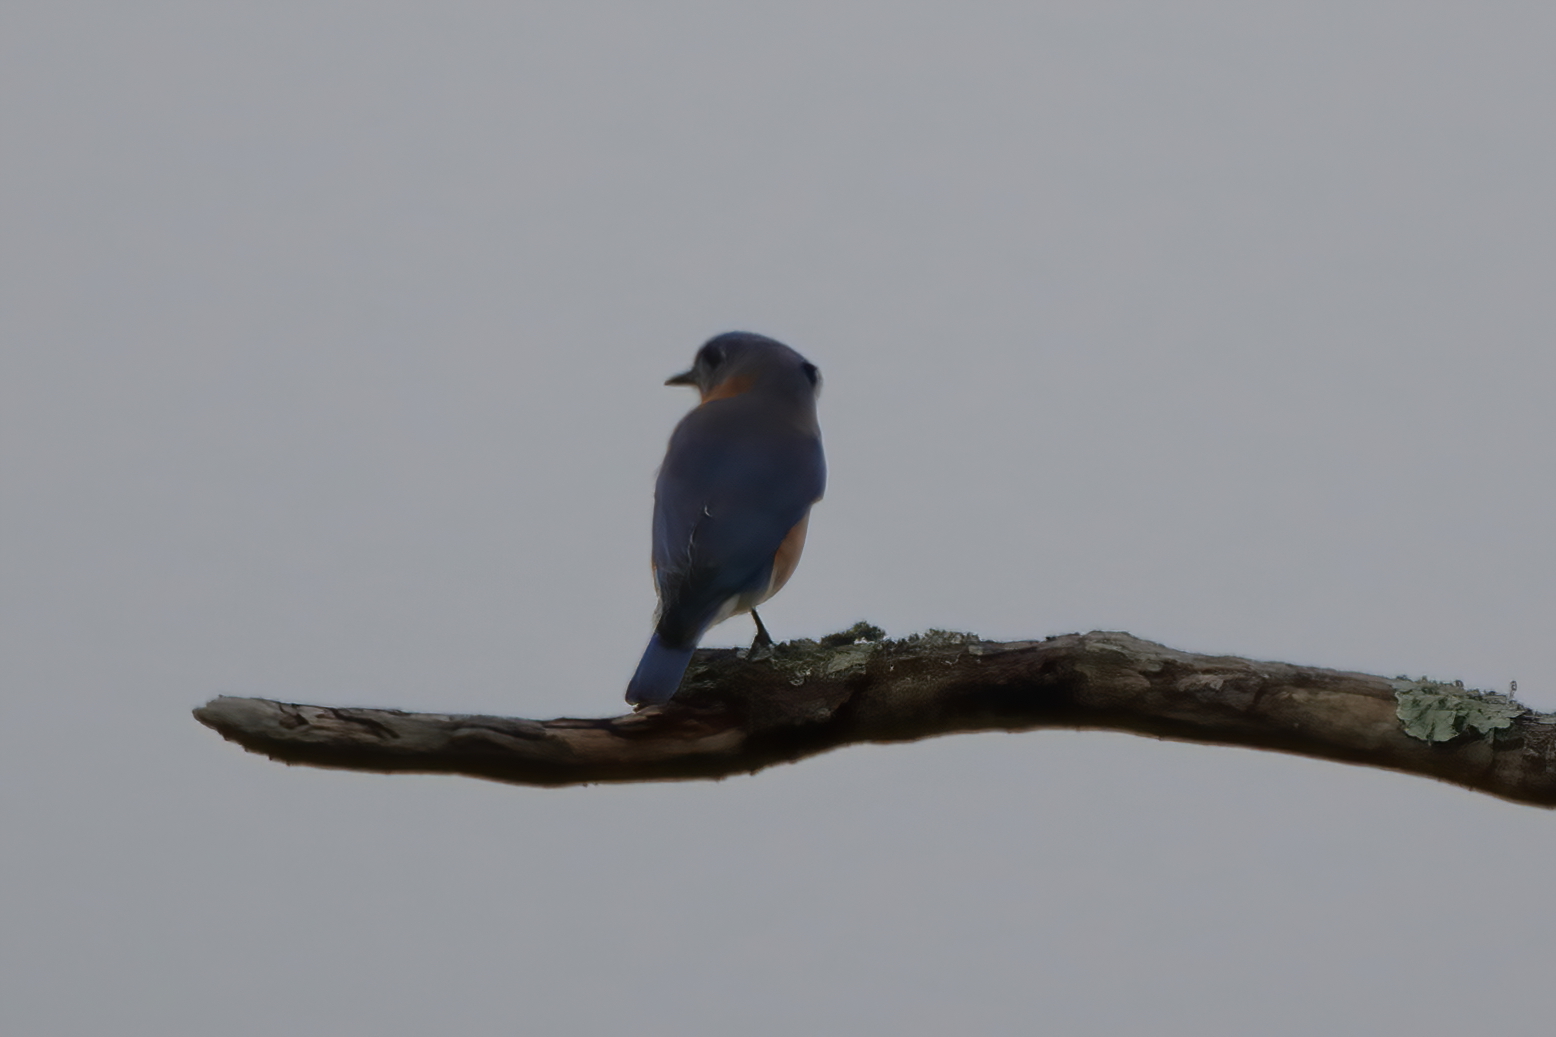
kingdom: Animalia
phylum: Chordata
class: Aves
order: Passeriformes
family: Turdidae
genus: Sialia
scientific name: Sialia sialis
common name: Eastern bluebird
